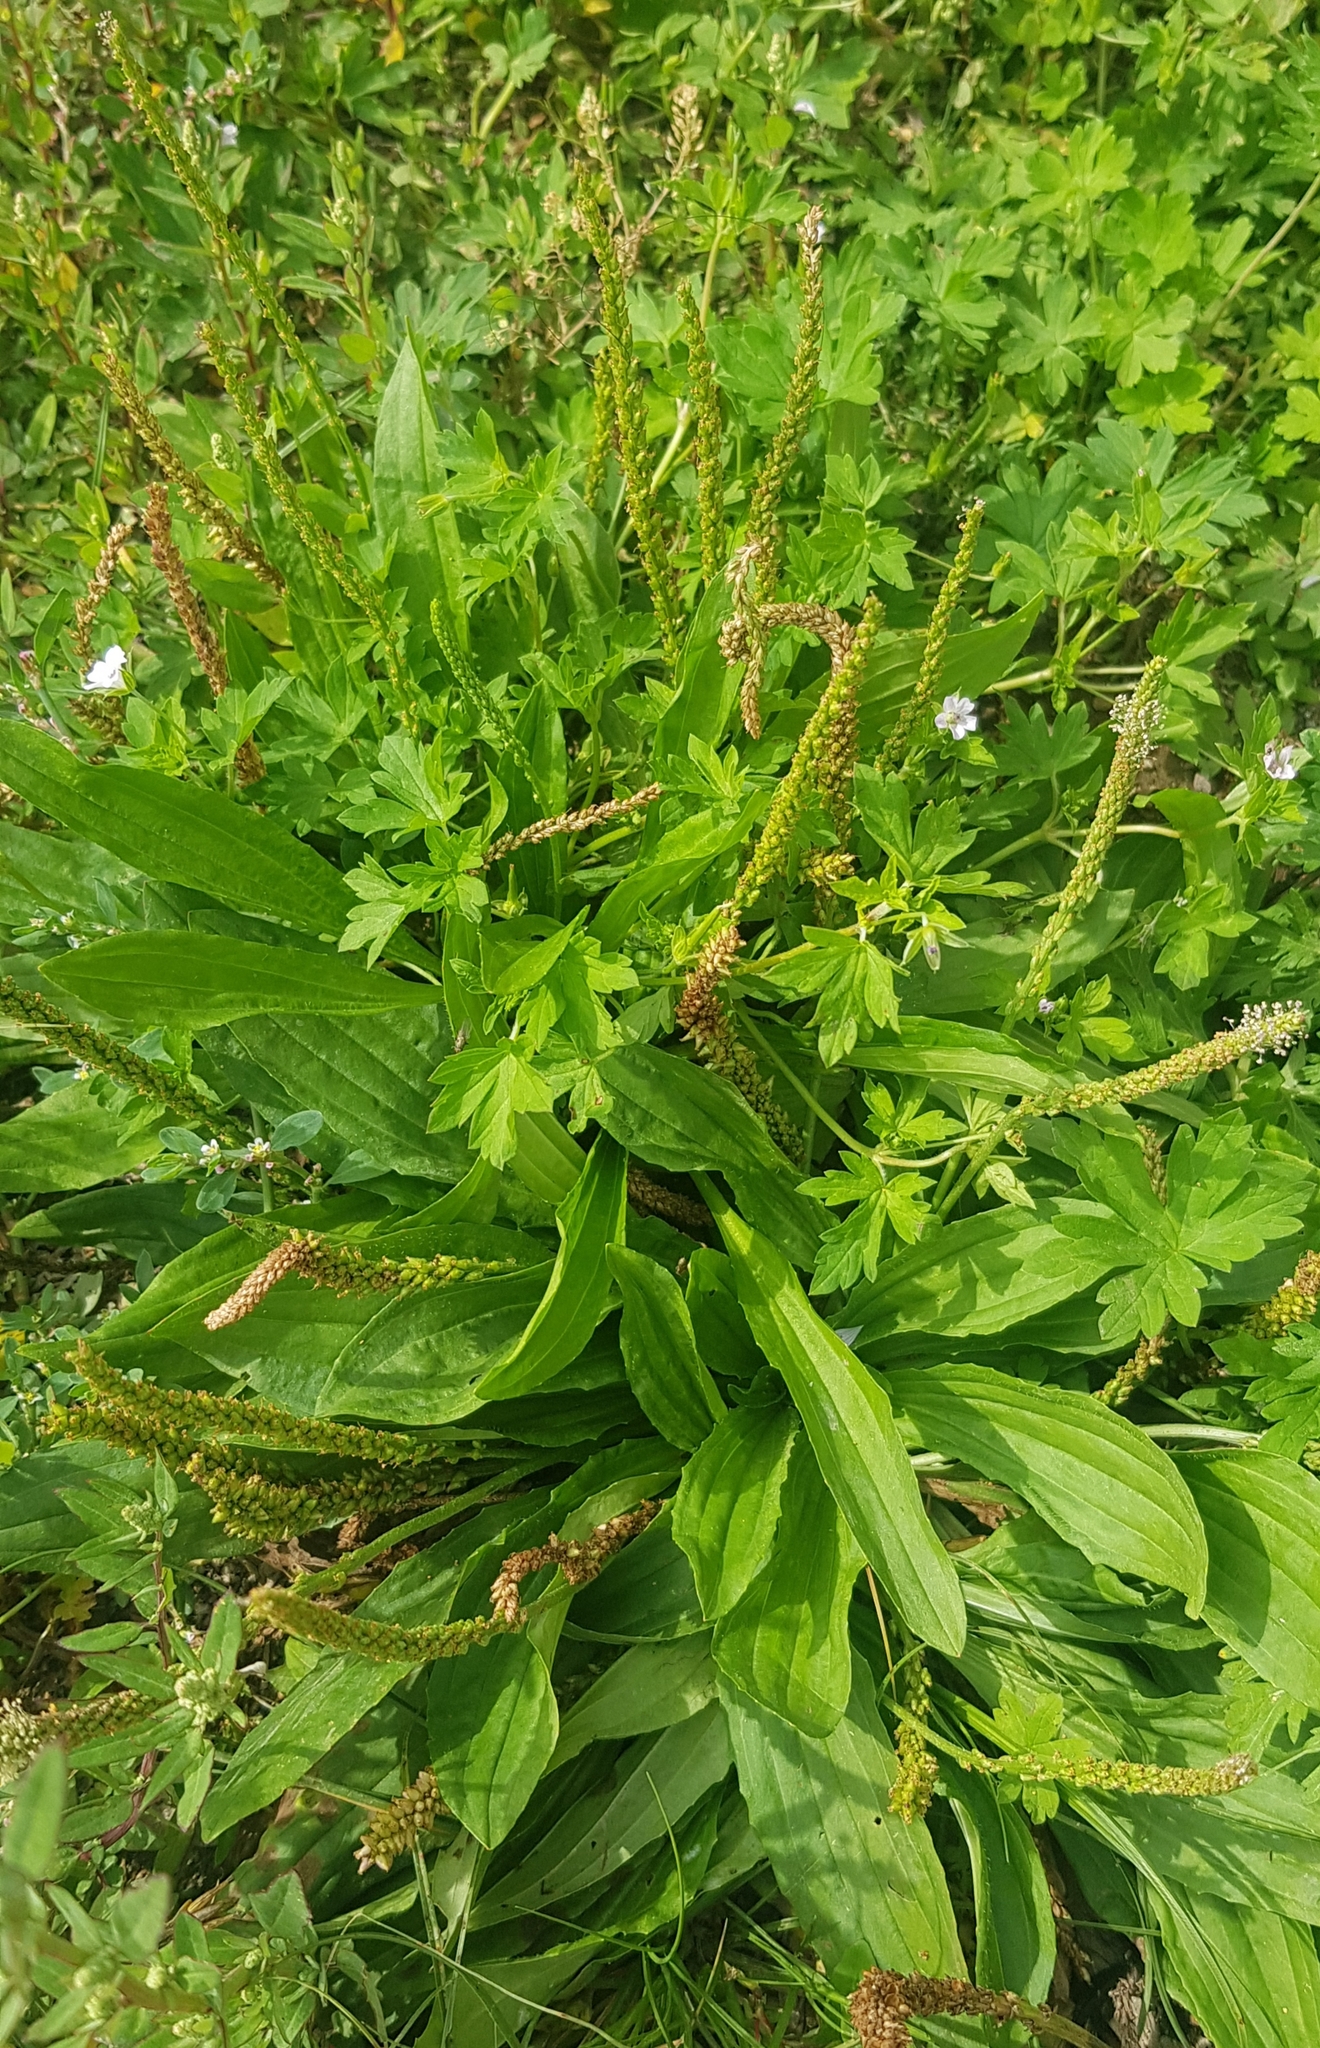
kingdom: Plantae
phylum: Tracheophyta
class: Magnoliopsida
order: Lamiales
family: Plantaginaceae
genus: Plantago
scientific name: Plantago media
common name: Hoary plantain
